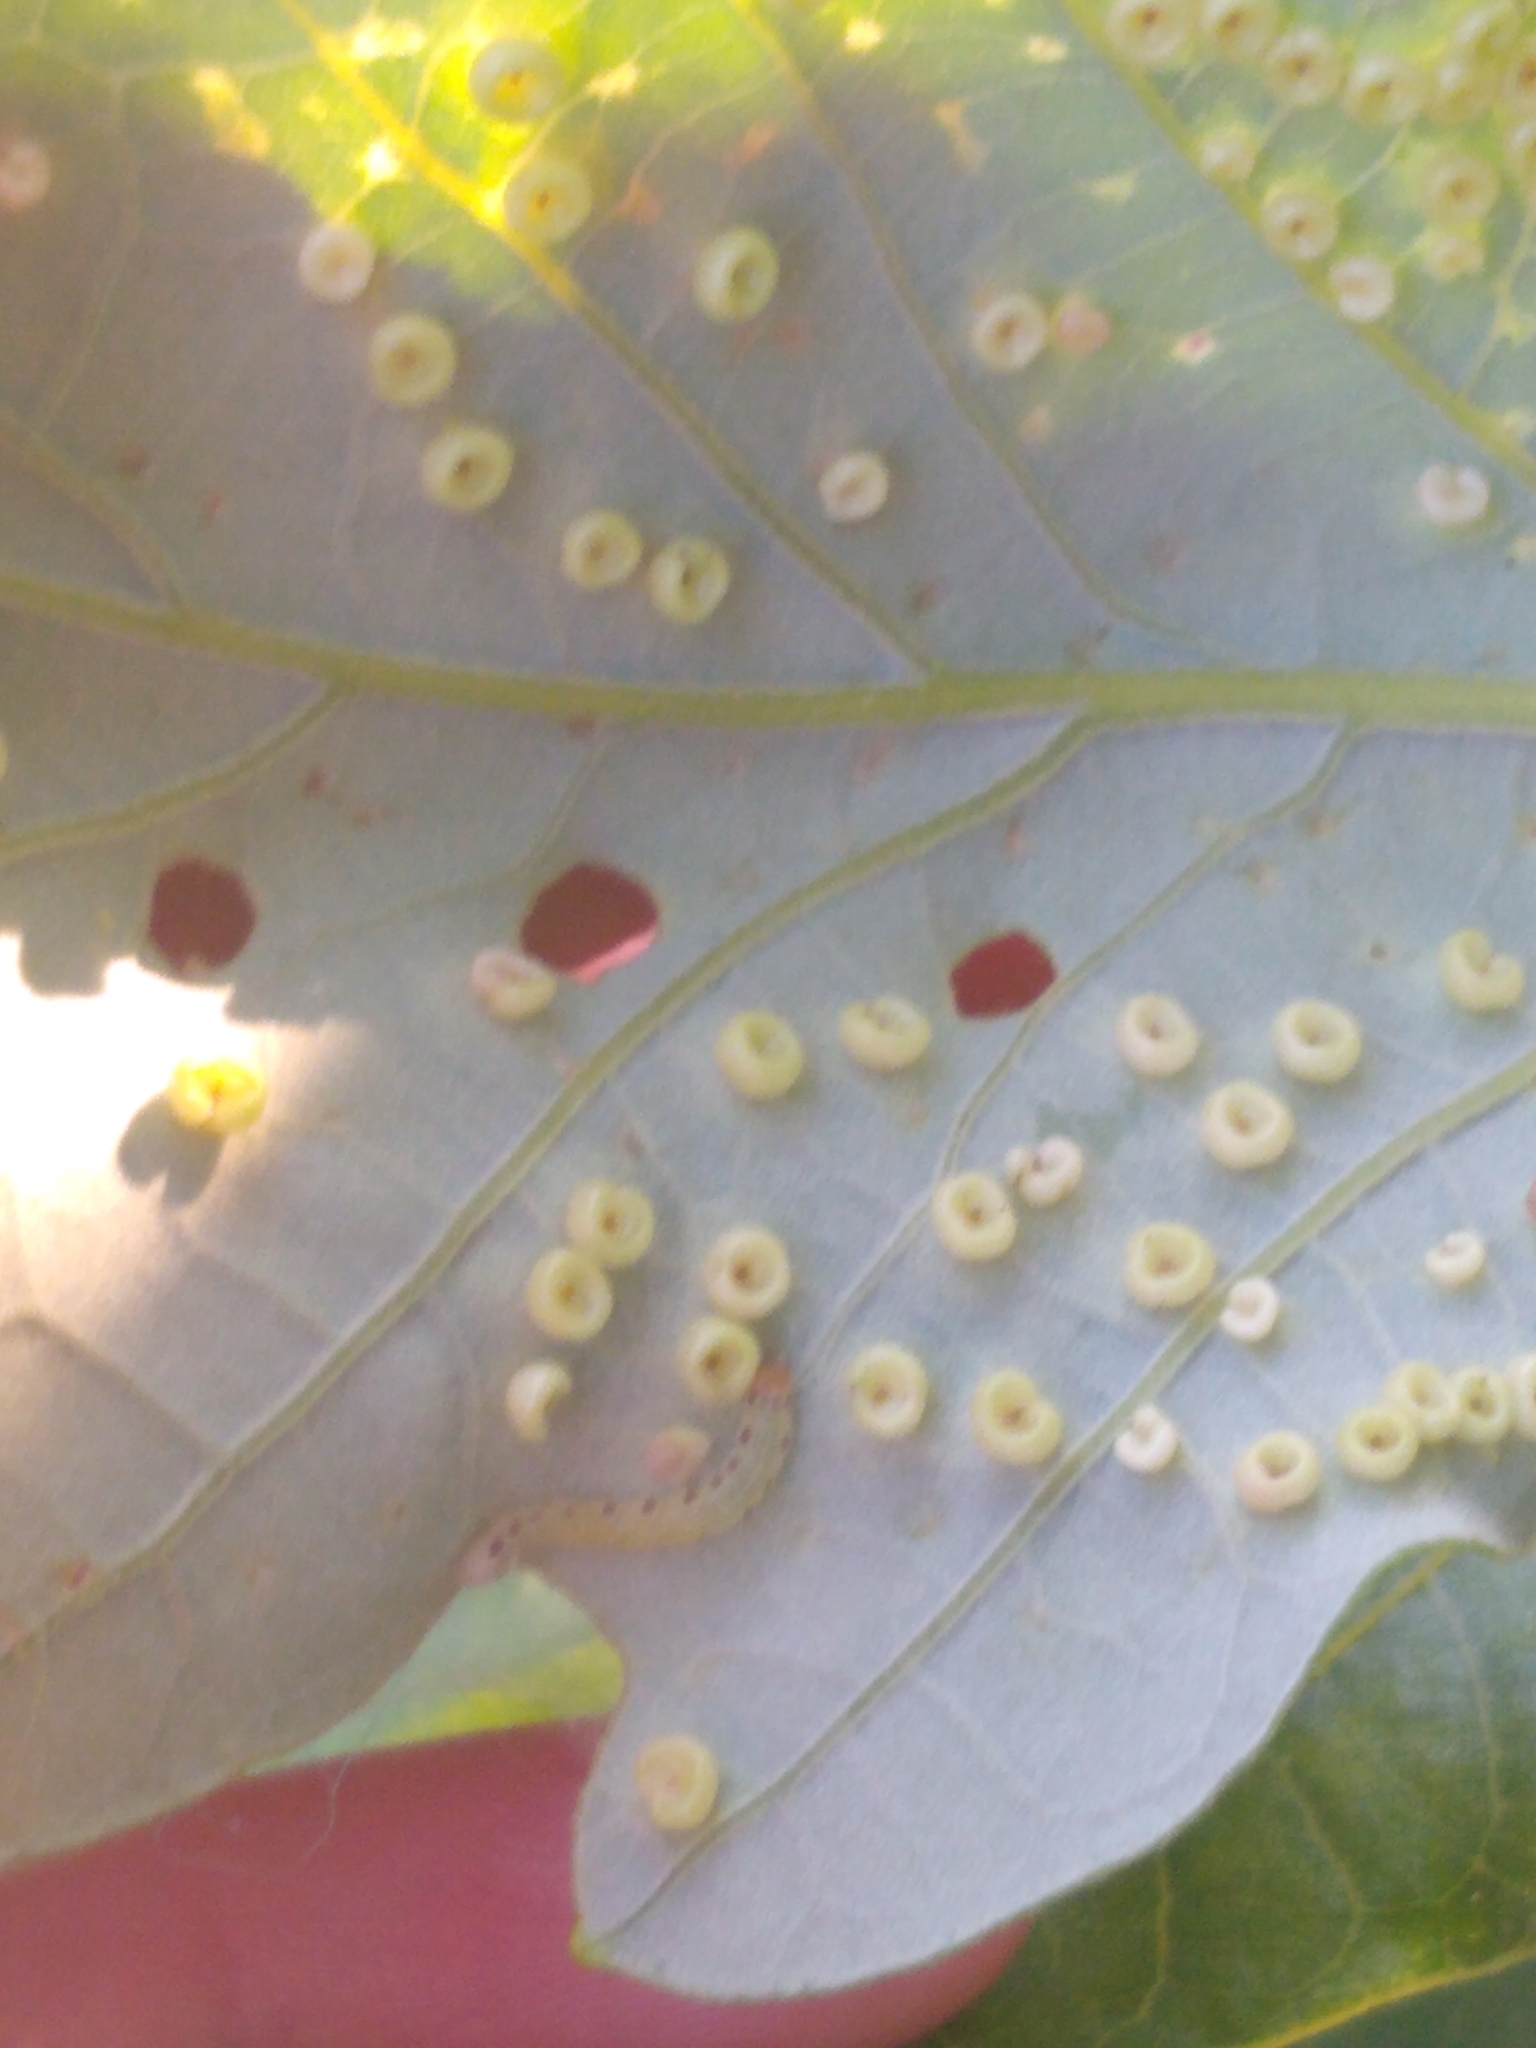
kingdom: Animalia
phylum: Arthropoda
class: Insecta
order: Hymenoptera
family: Cynipidae
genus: Neuroterus
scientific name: Neuroterus
